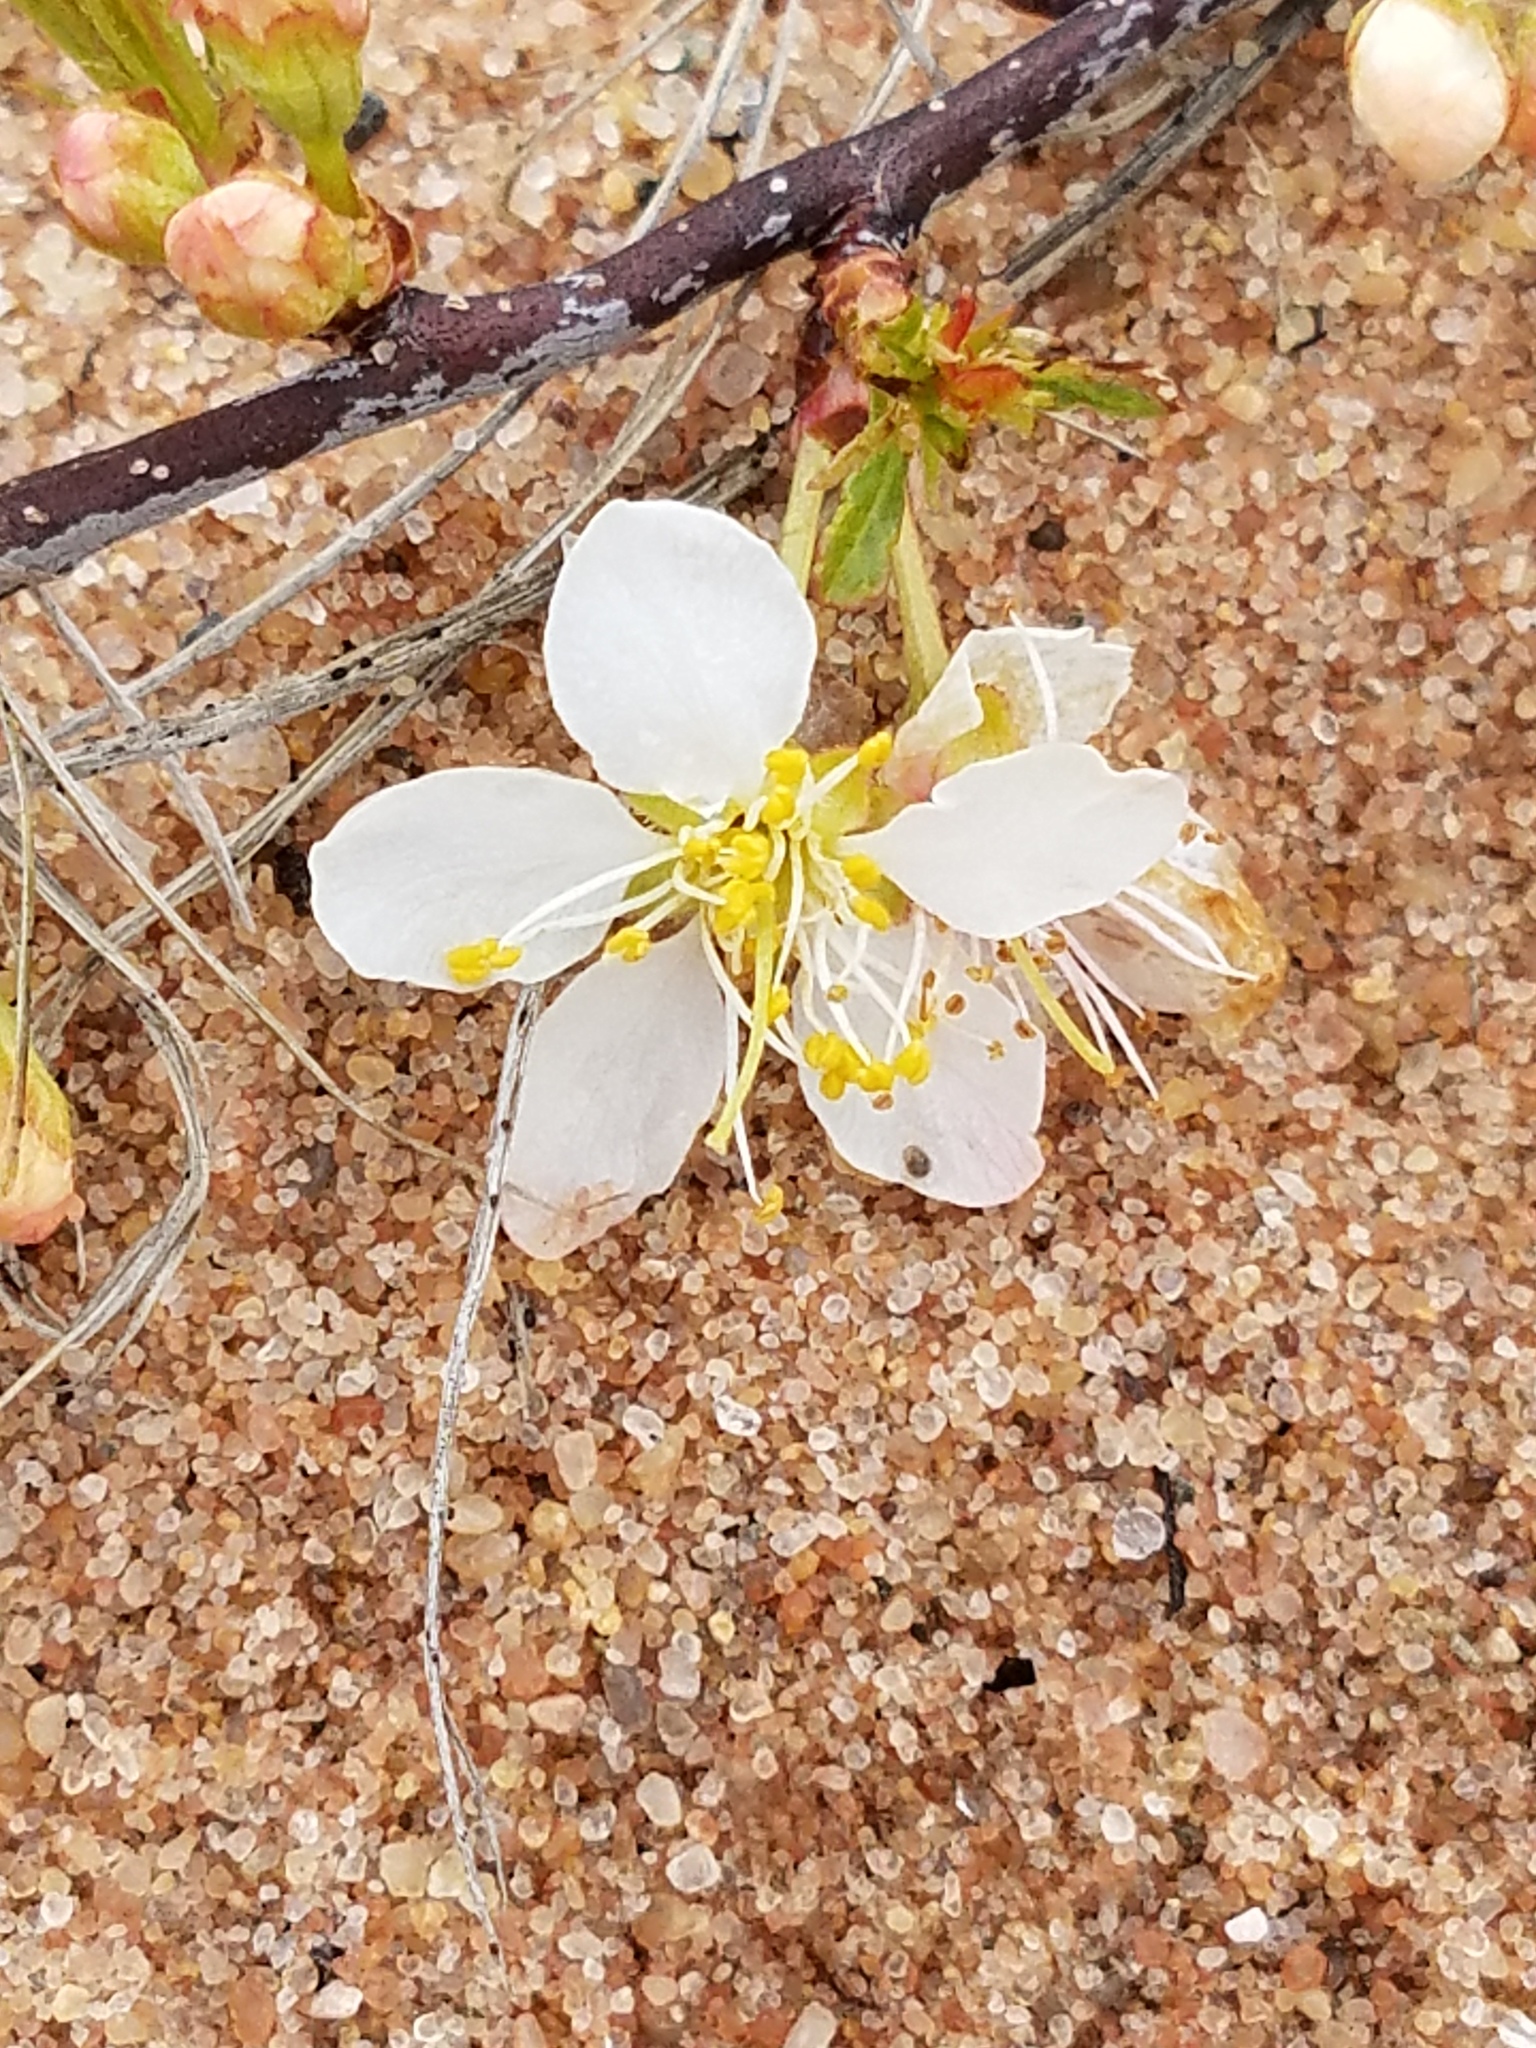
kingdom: Plantae
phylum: Tracheophyta
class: Magnoliopsida
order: Rosales
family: Rosaceae
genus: Prunus
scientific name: Prunus pumila
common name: Dwarf cherry
